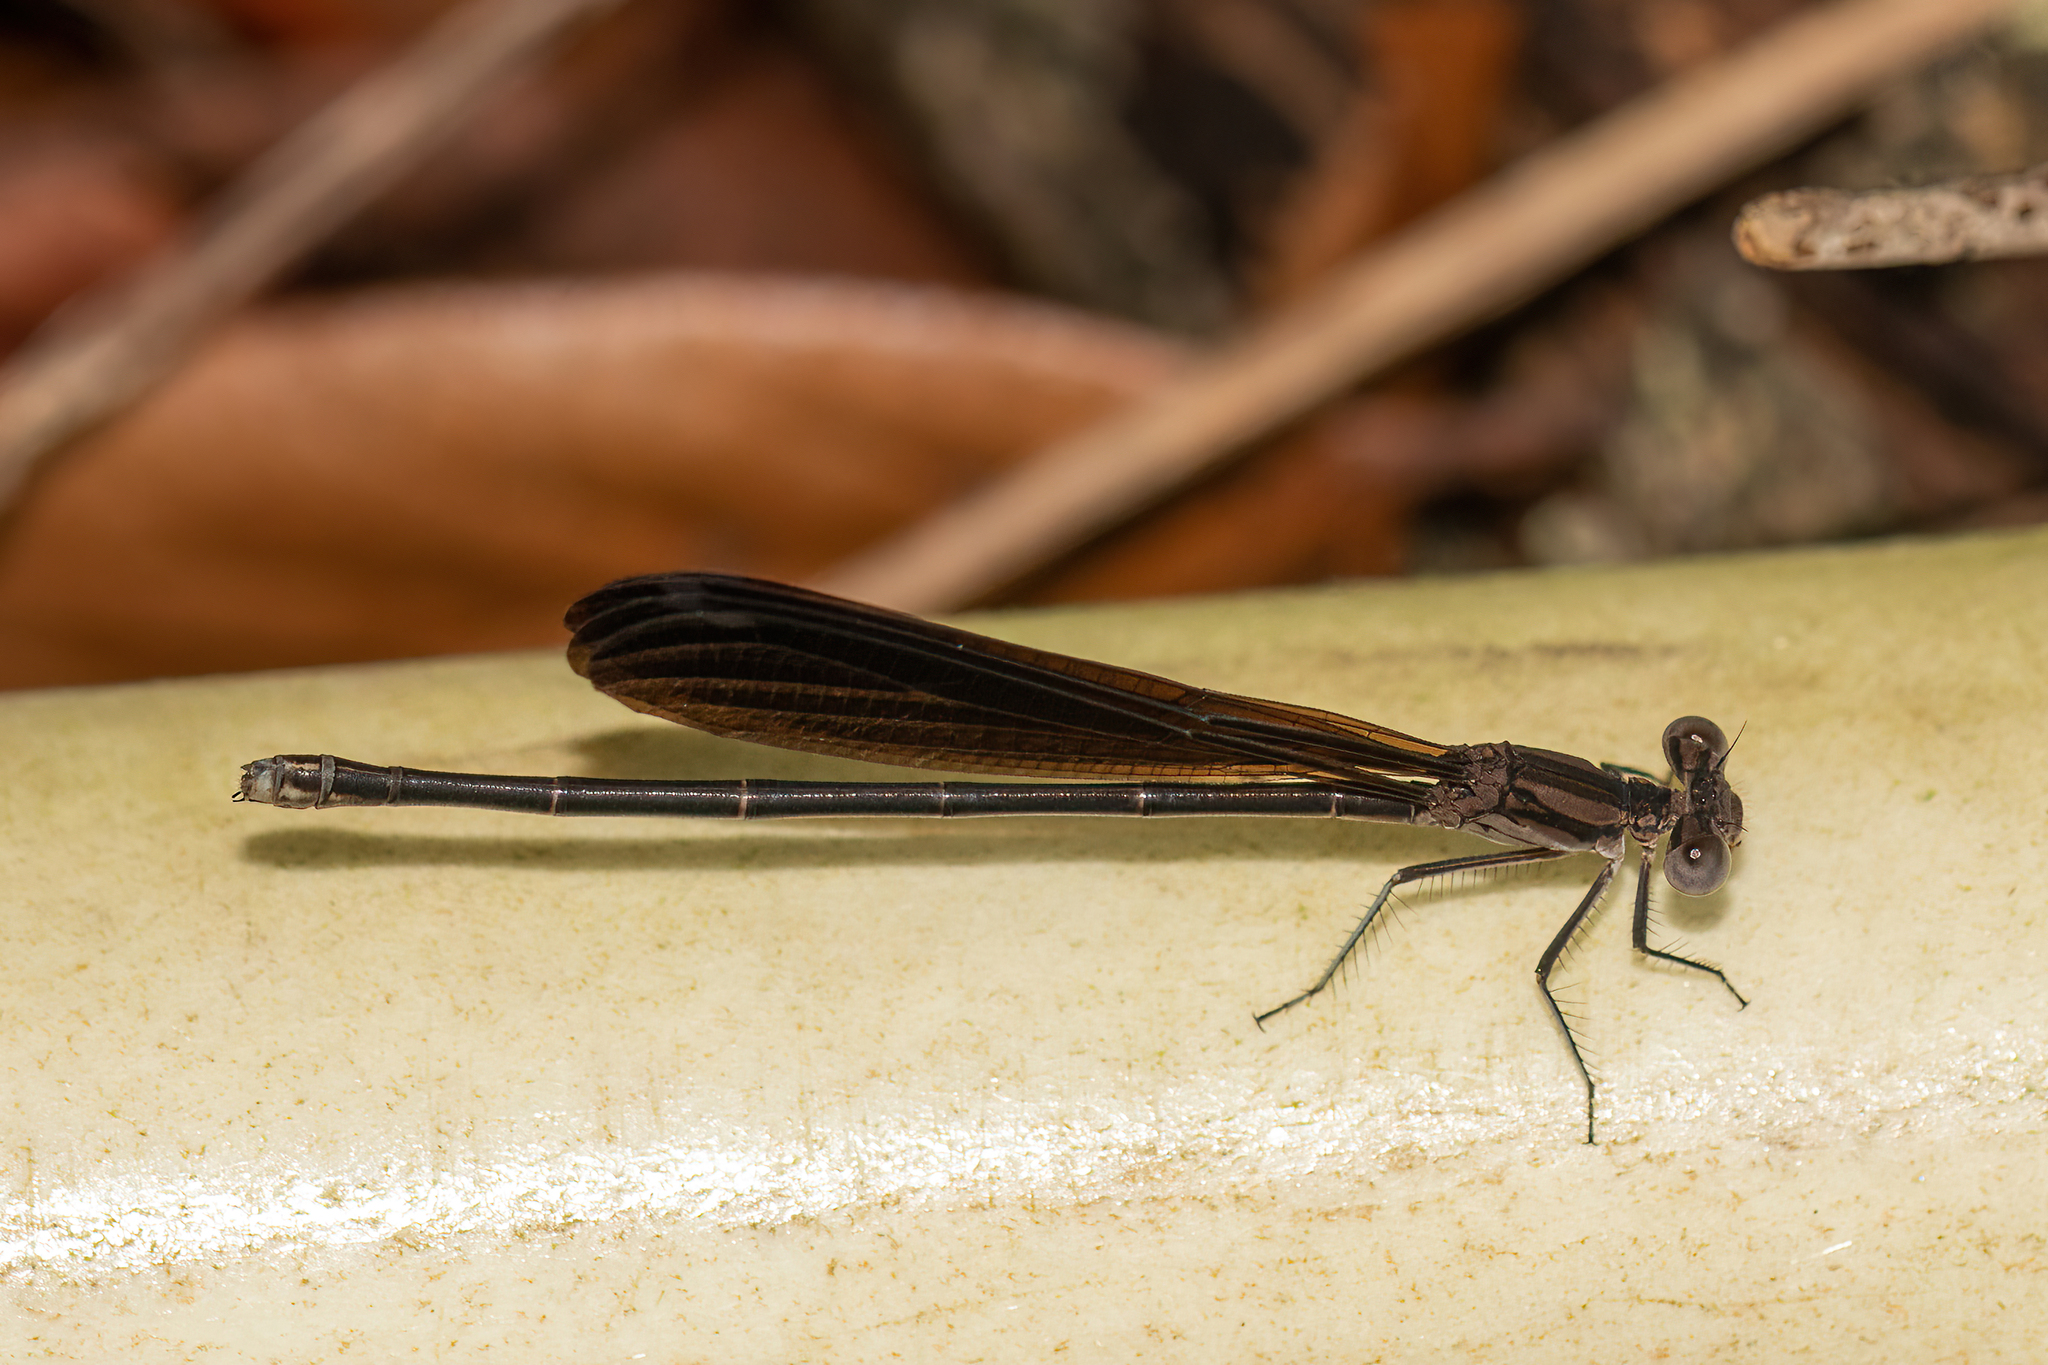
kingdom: Animalia
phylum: Arthropoda
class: Insecta
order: Odonata
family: Coenagrionidae
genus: Argia
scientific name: Argia fumipennis
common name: Variable dancer
